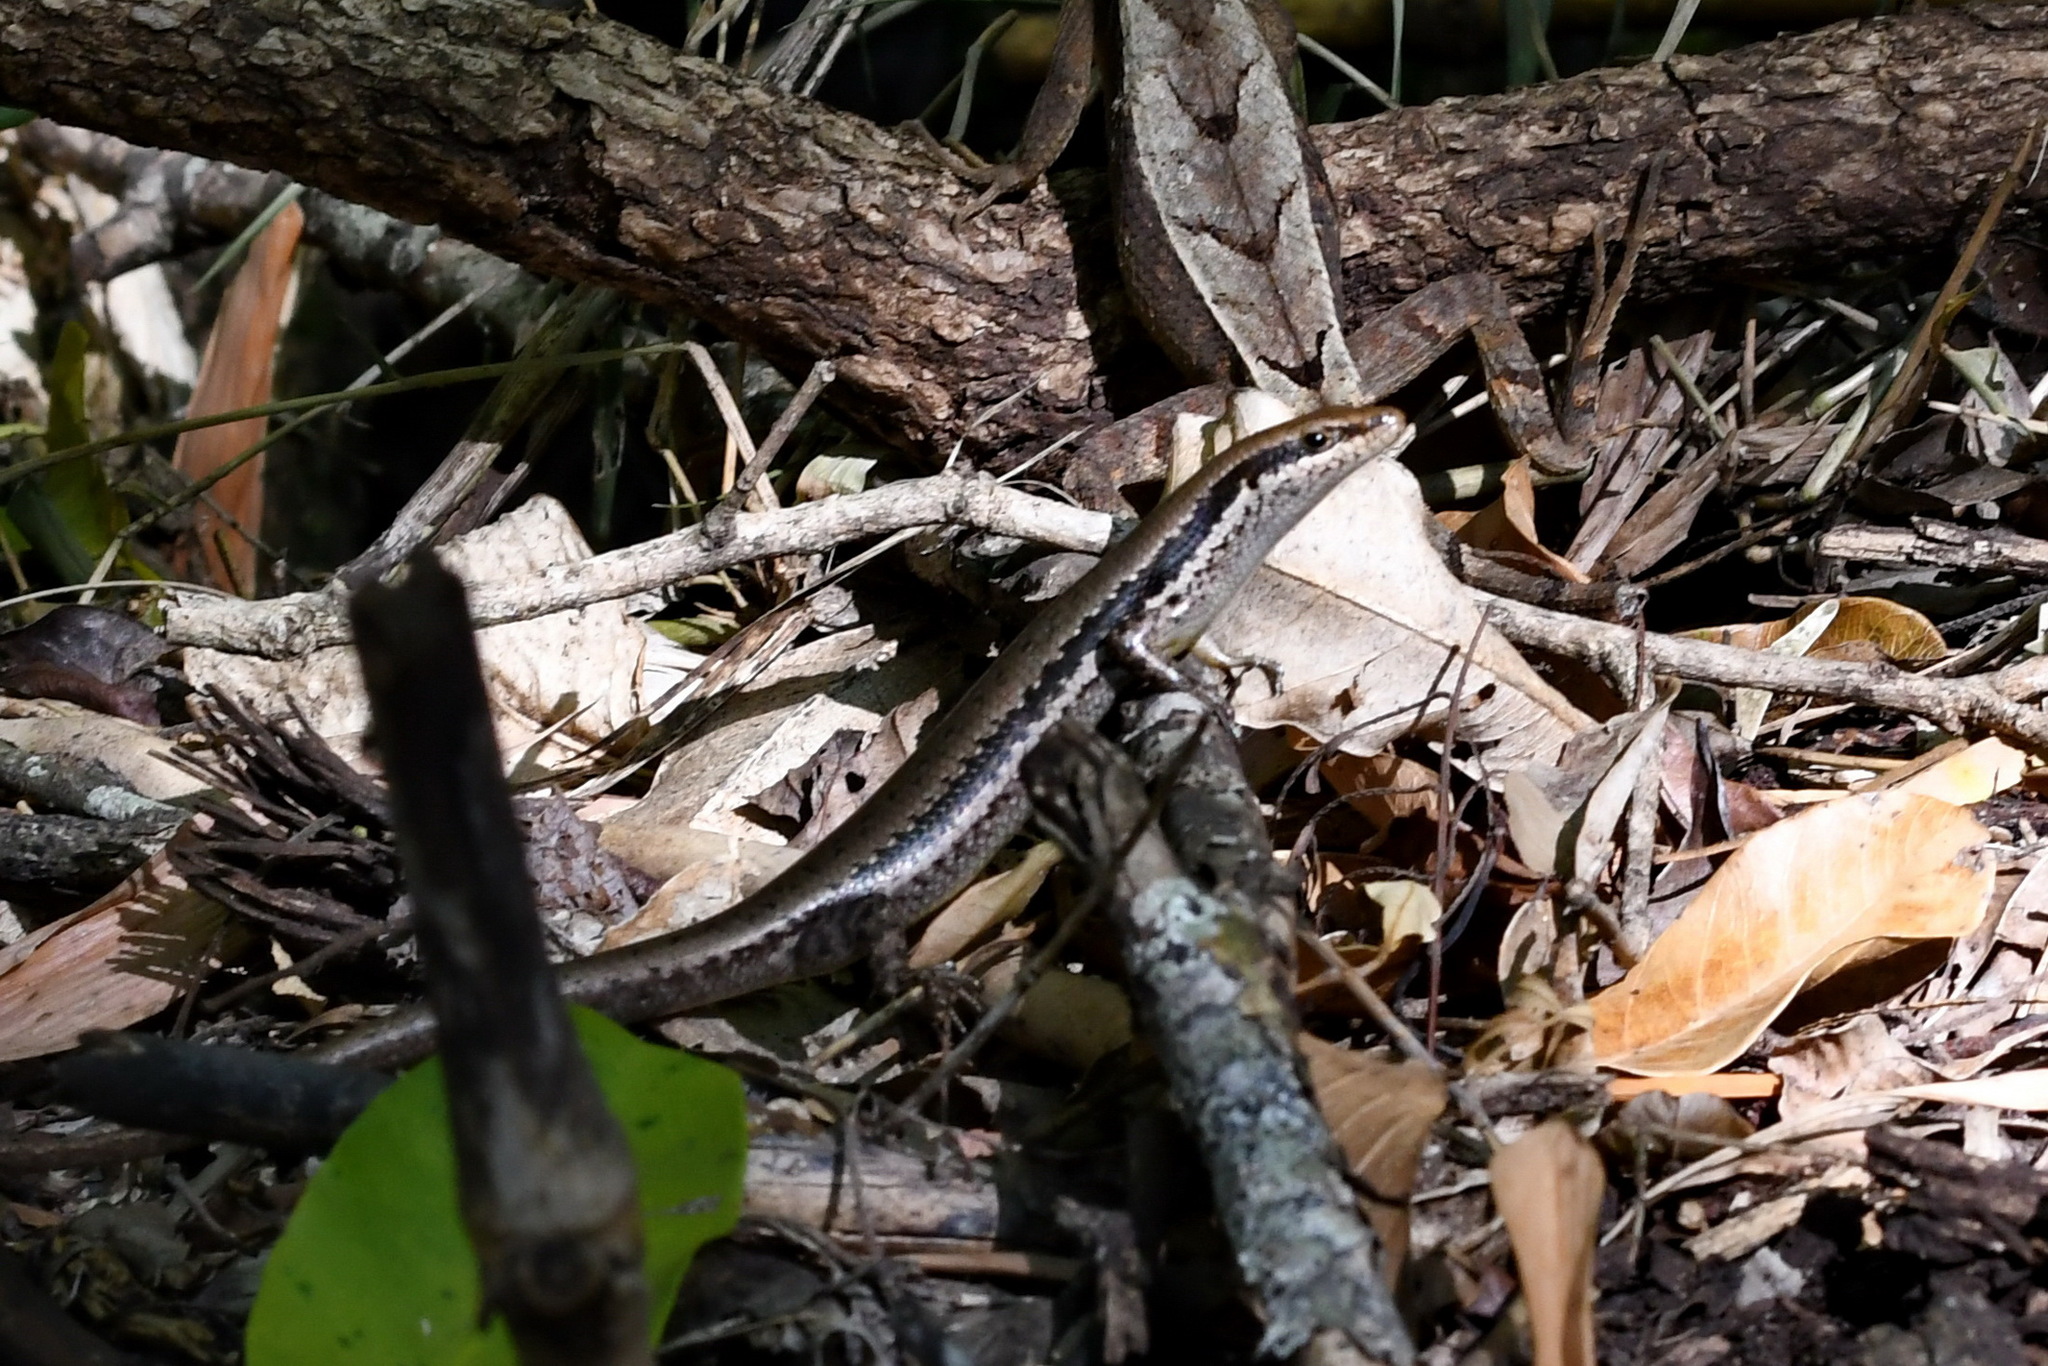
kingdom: Animalia
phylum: Chordata
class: Squamata
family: Scincidae
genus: Notomabuya
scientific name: Notomabuya frenata
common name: Cope's mabuya
